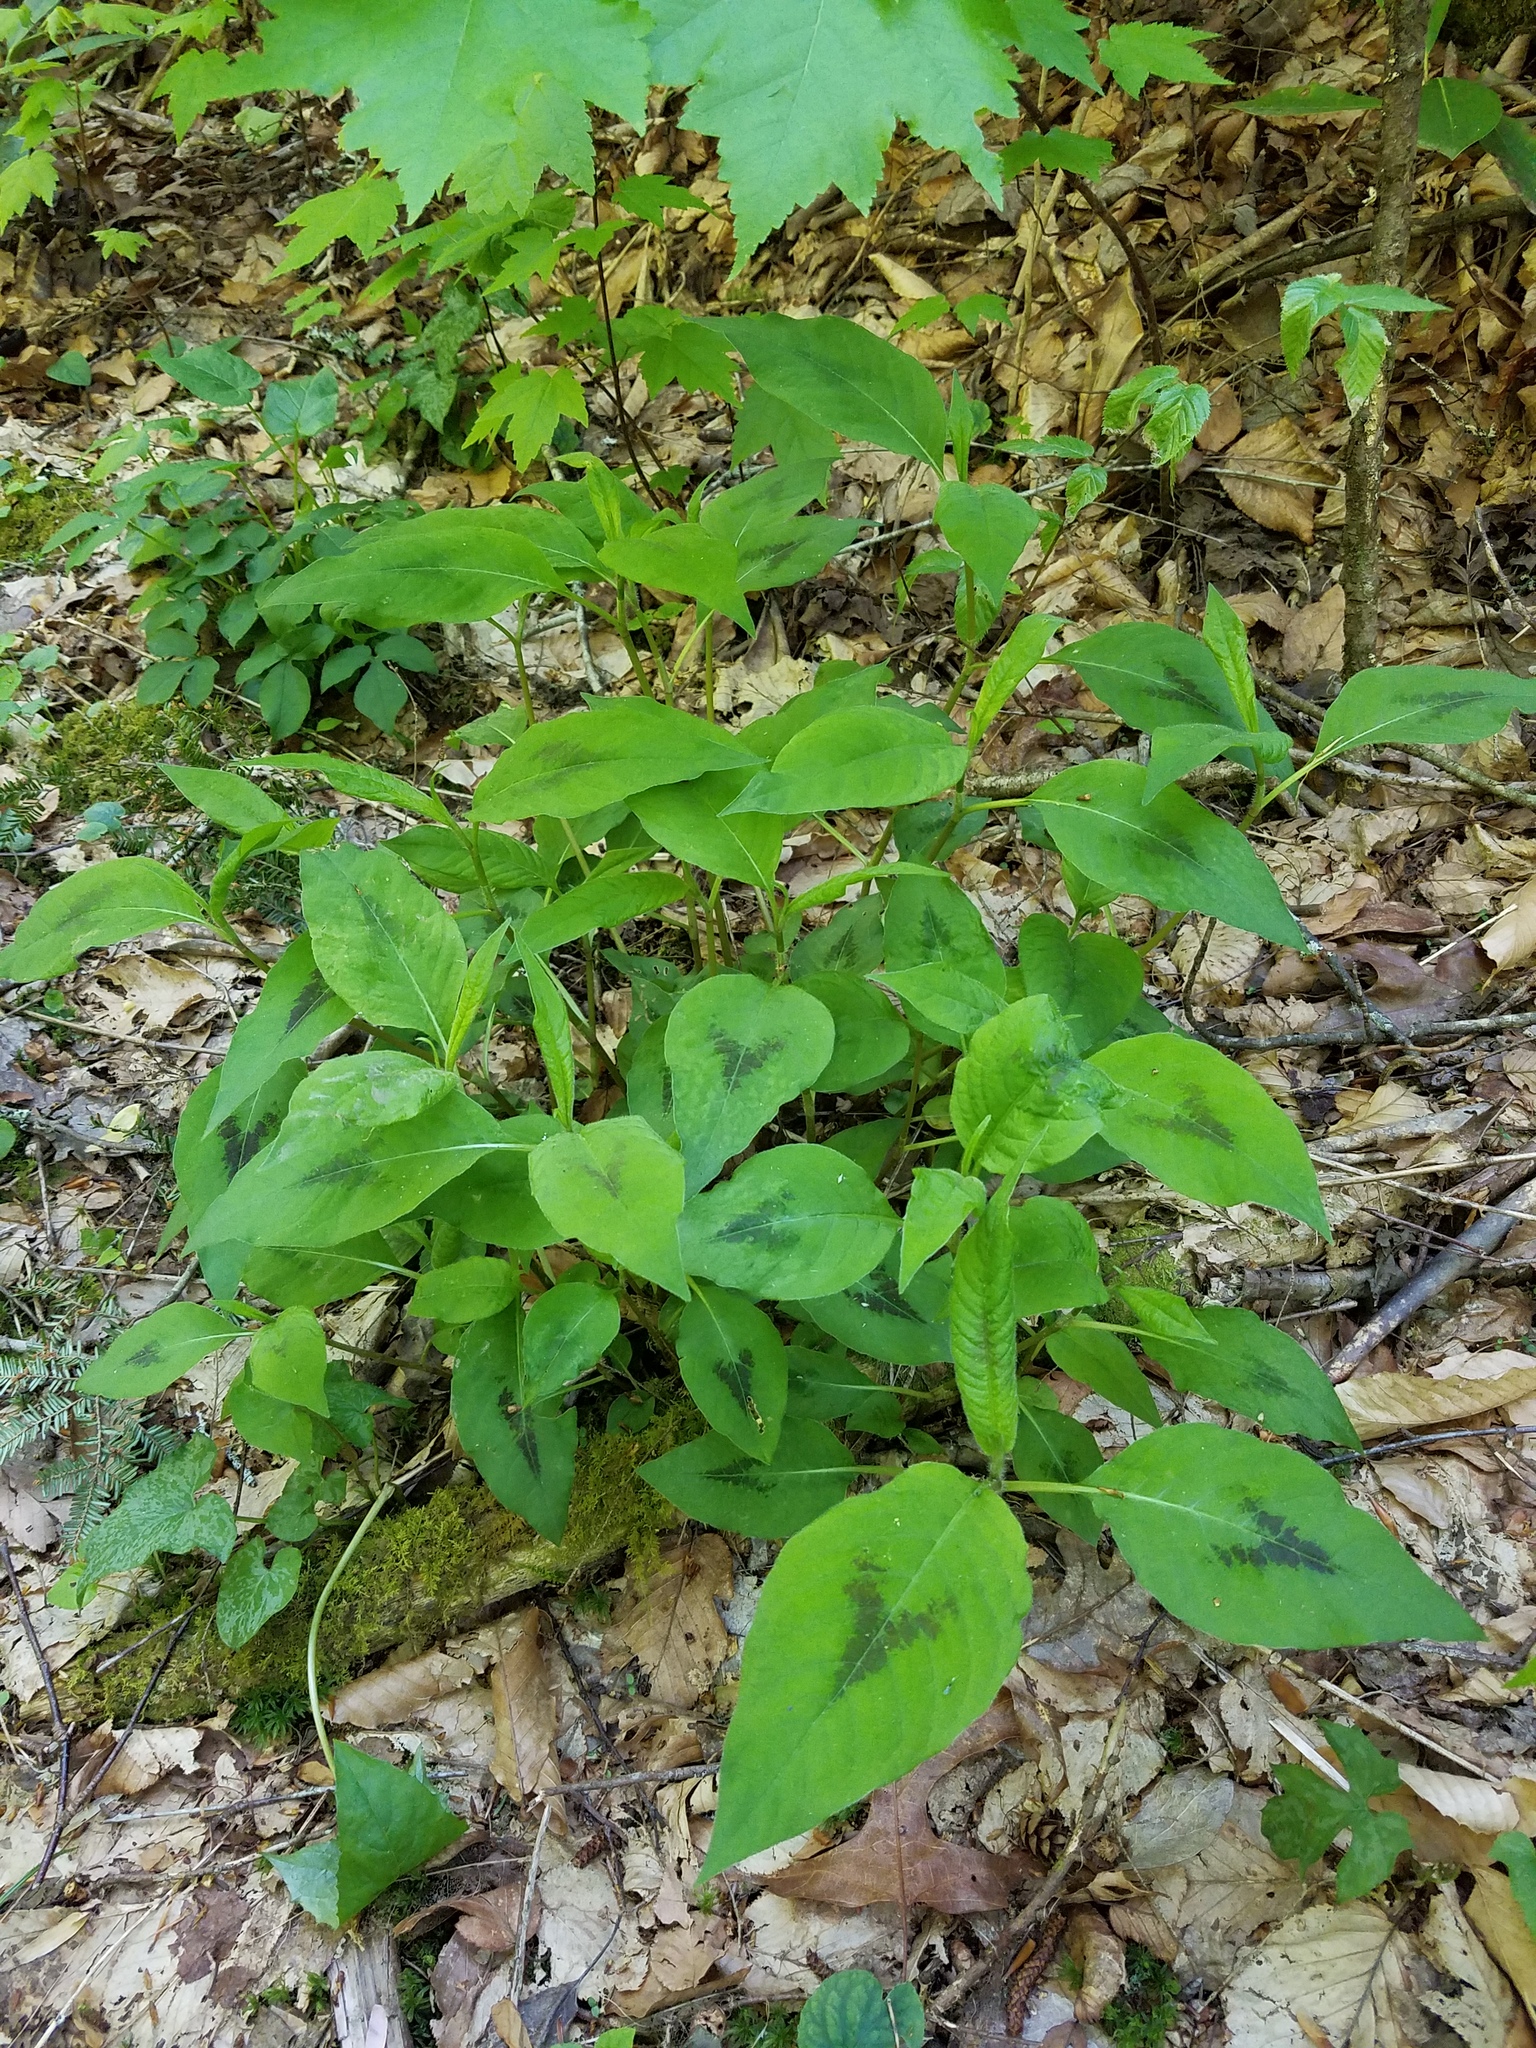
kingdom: Plantae
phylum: Tracheophyta
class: Magnoliopsida
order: Caryophyllales
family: Polygonaceae
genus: Persicaria
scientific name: Persicaria virginiana
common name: Jumpseed
